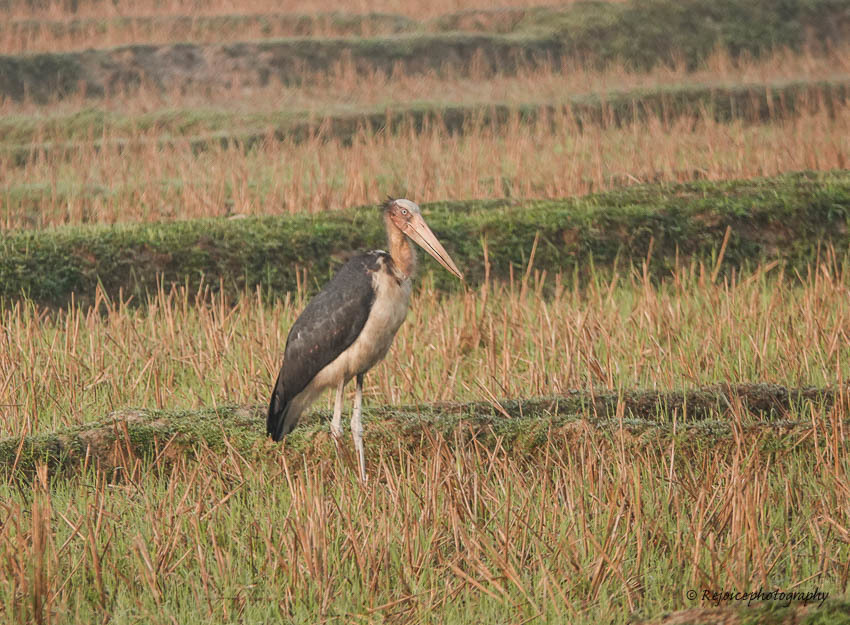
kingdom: Animalia
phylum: Chordata
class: Aves
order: Ciconiiformes
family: Ciconiidae
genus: Leptoptilos
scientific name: Leptoptilos javanicus
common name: Lesser adjutant
